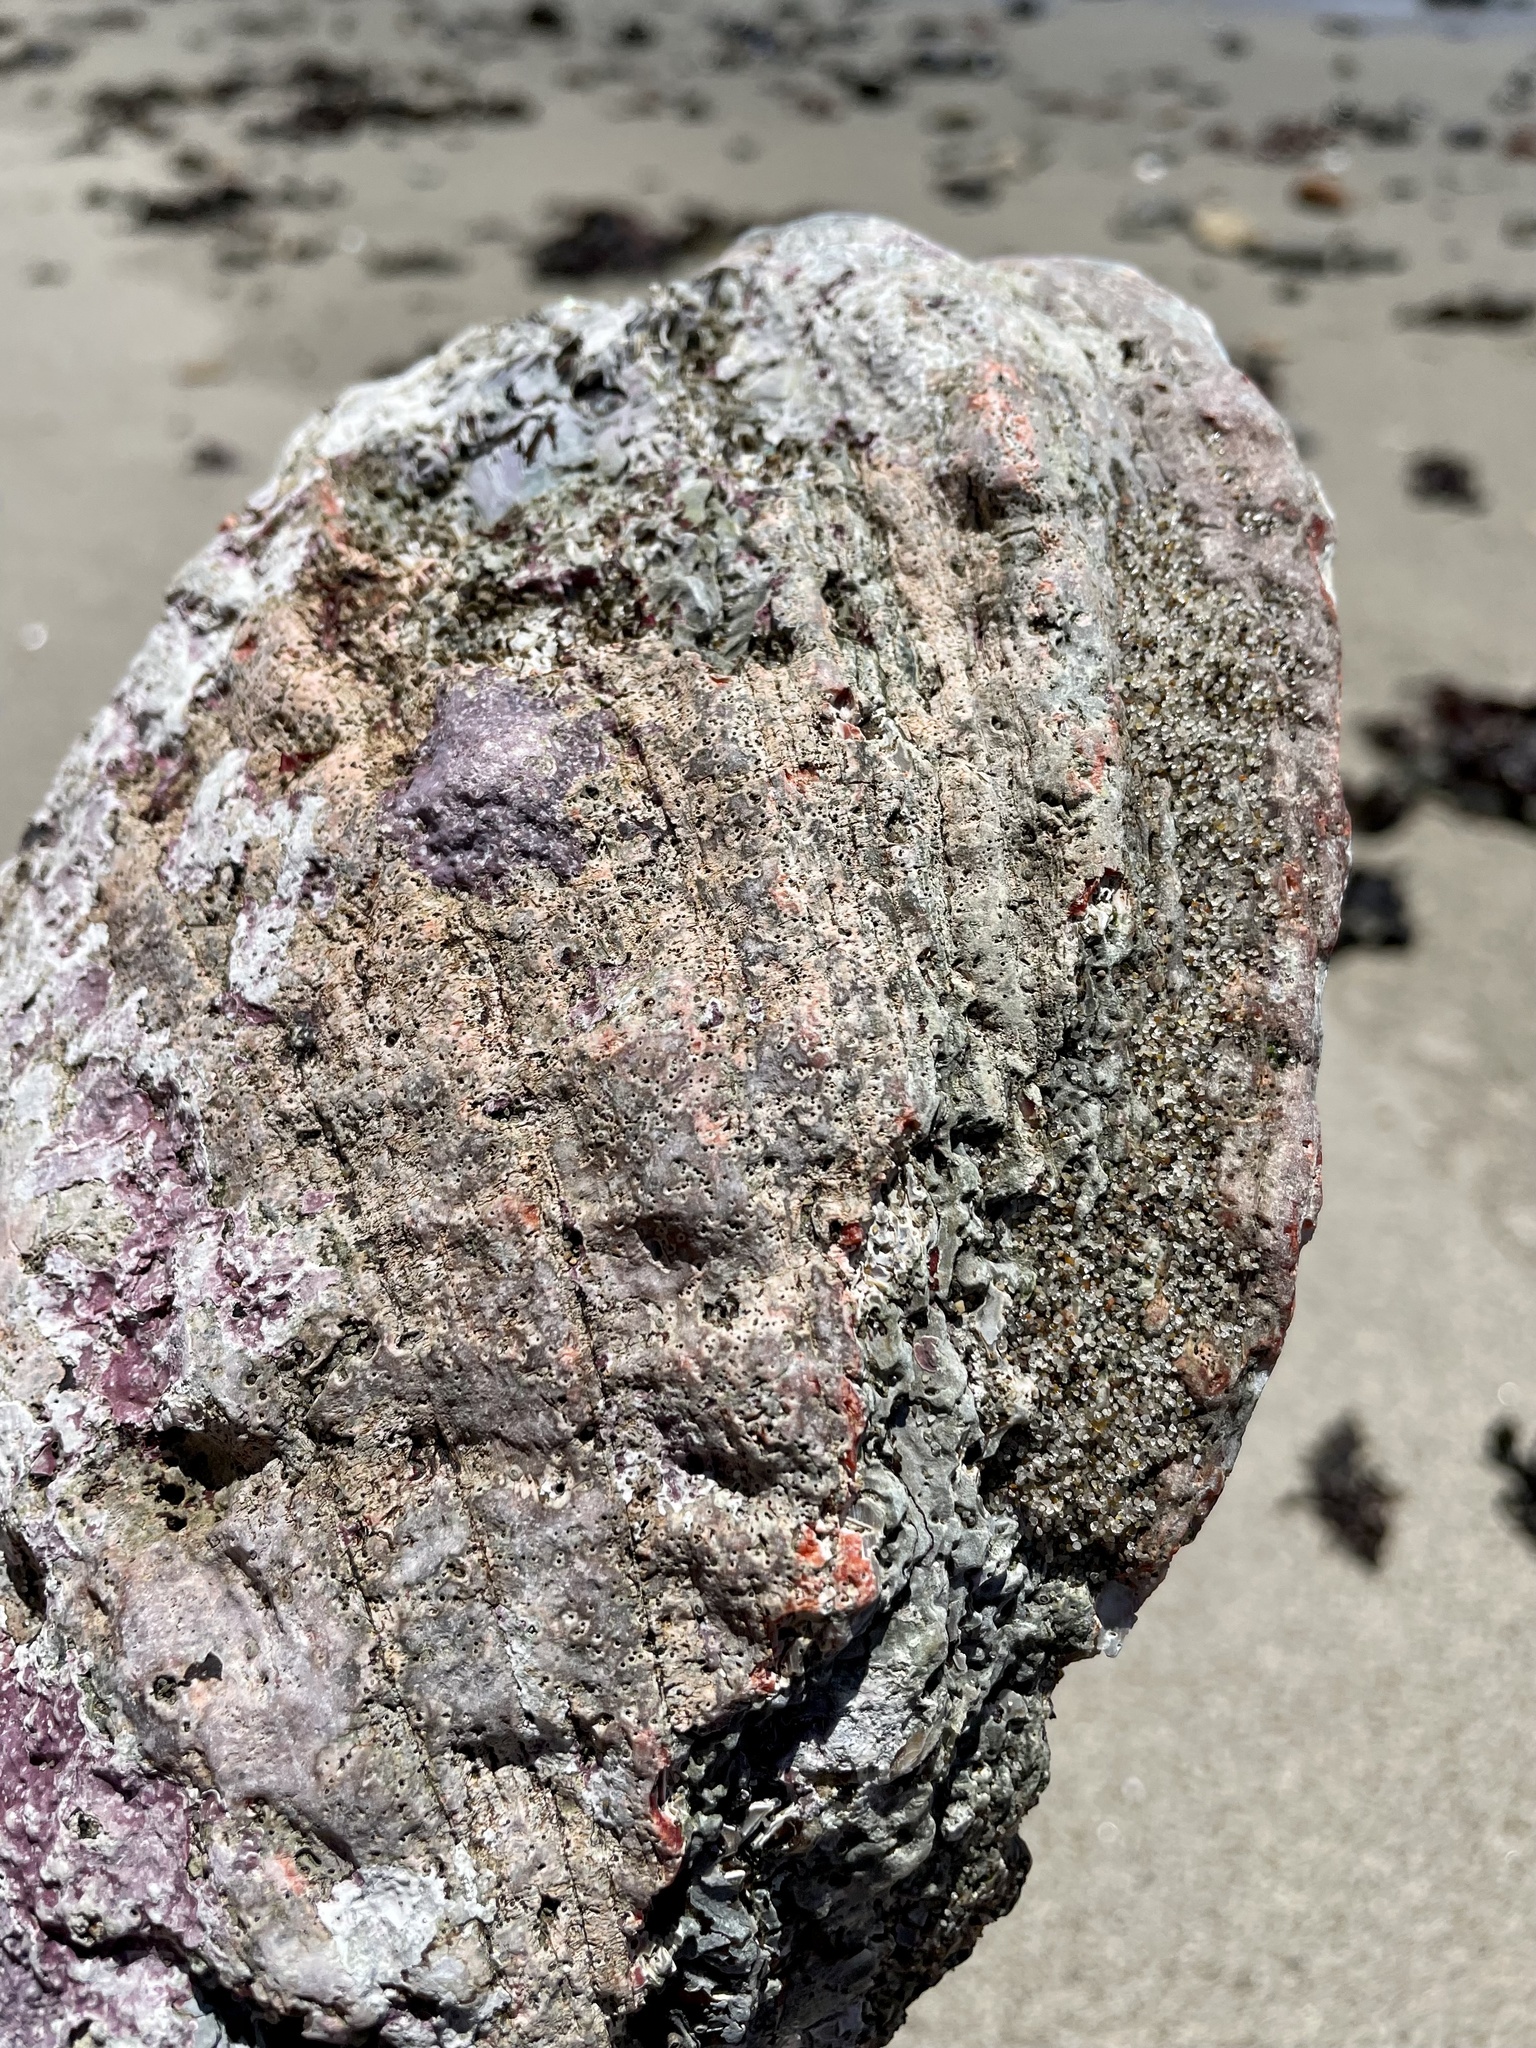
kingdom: Animalia
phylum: Mollusca
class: Gastropoda
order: Lepetellida
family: Haliotidae
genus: Haliotis
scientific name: Haliotis rufescens
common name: Red abalone
